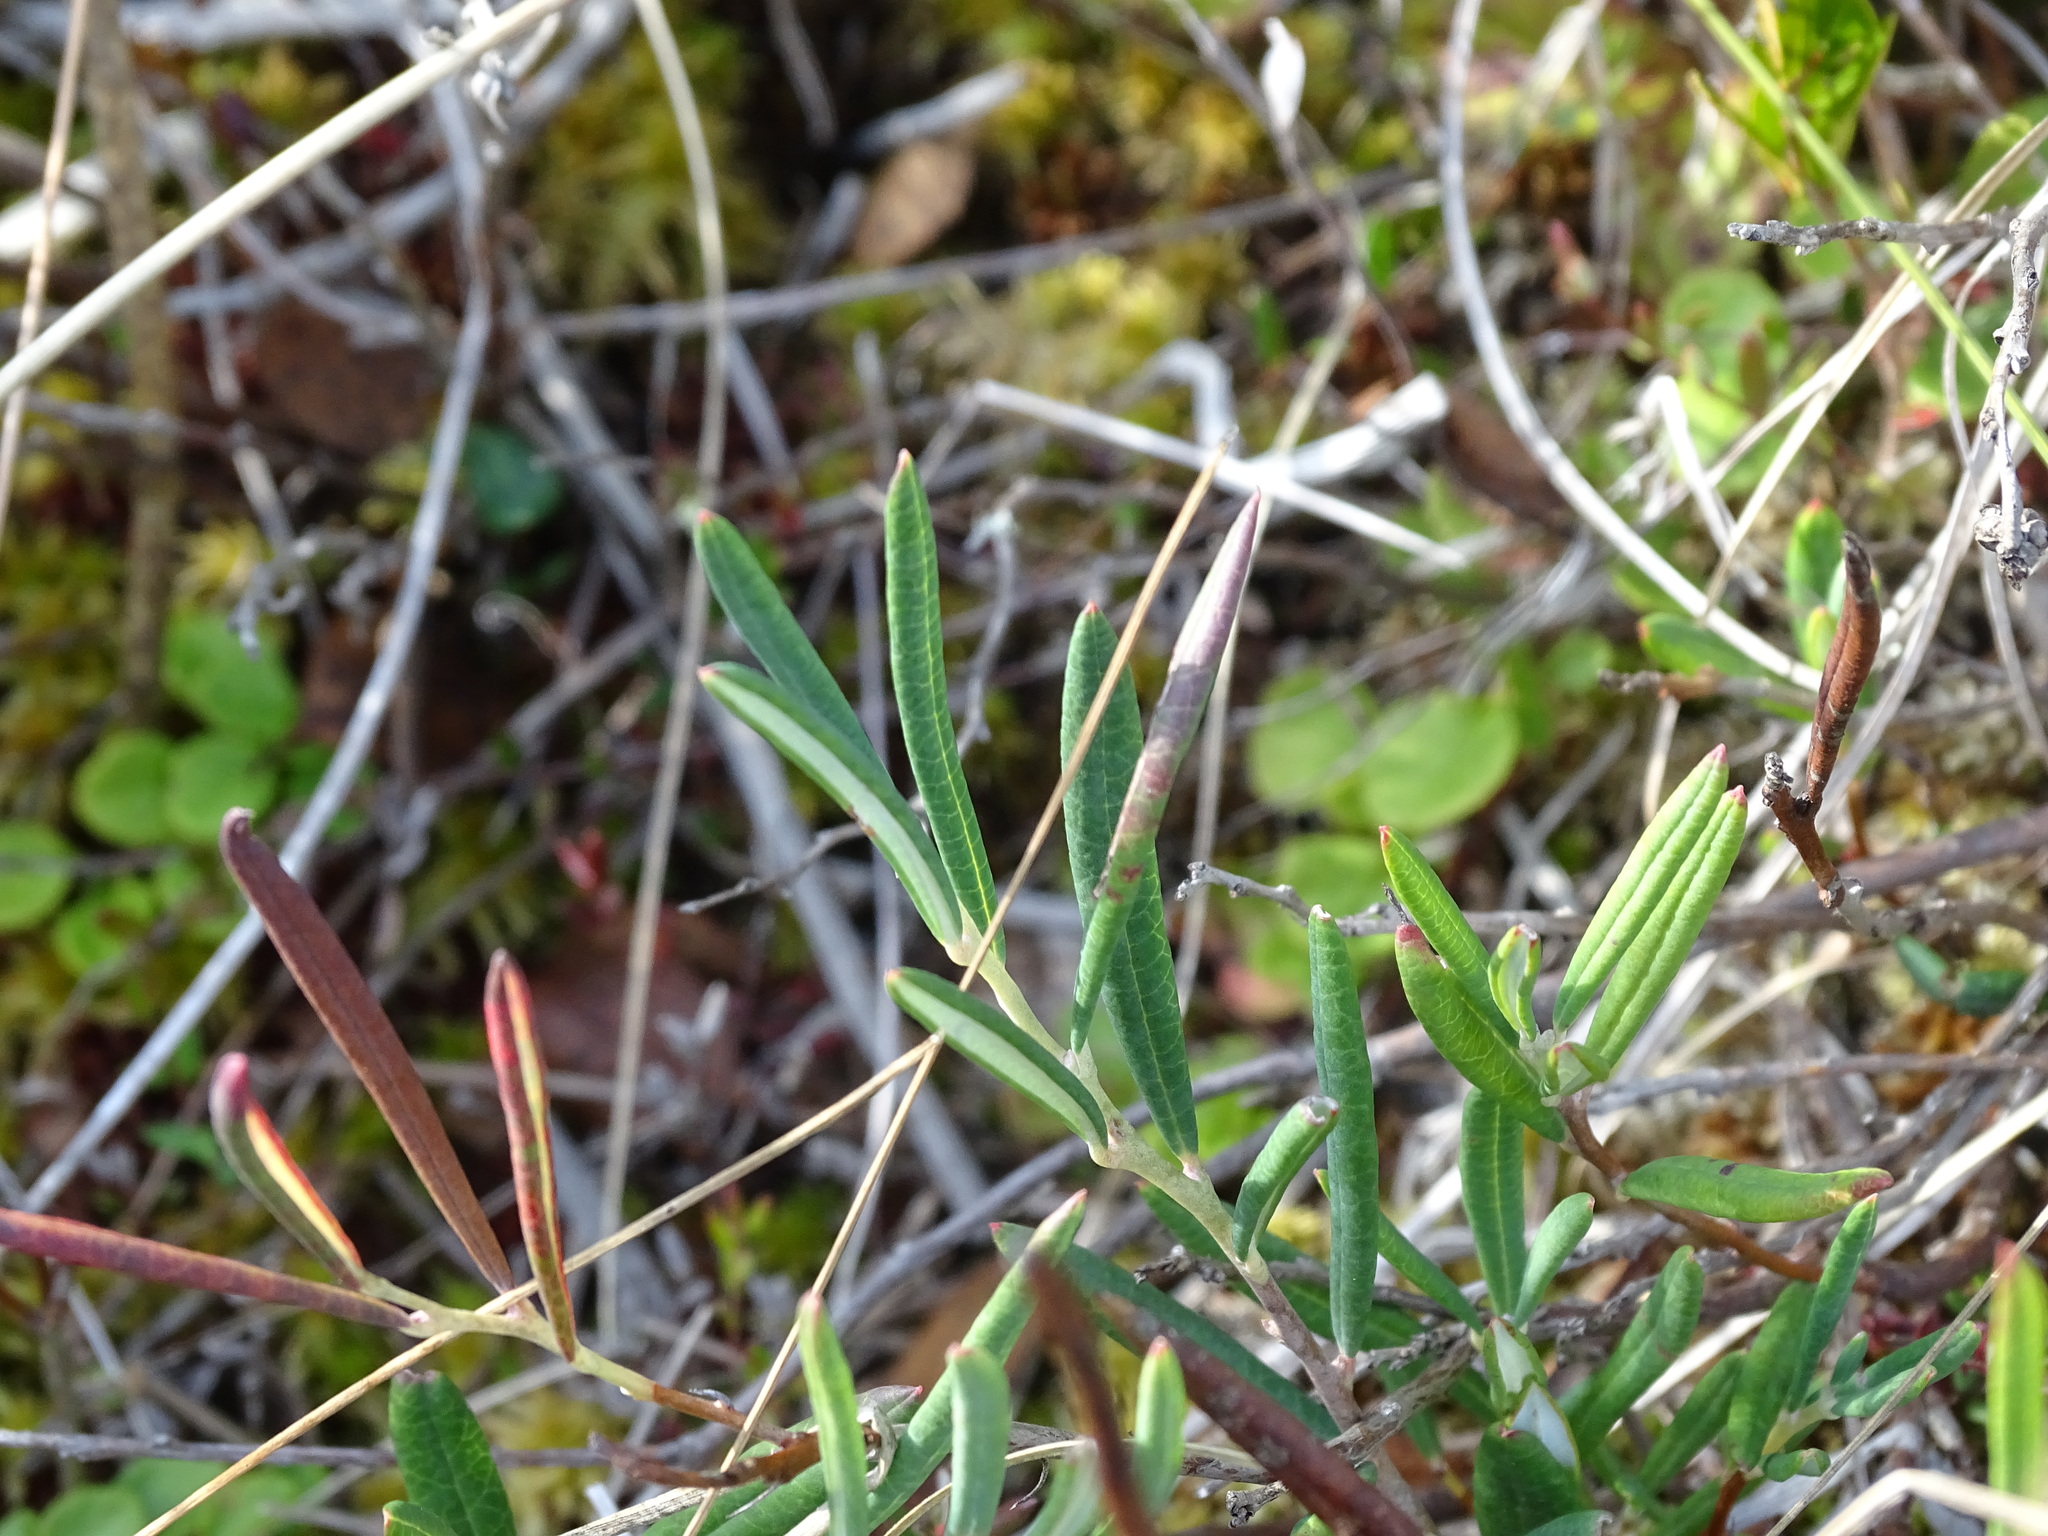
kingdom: Plantae
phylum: Tracheophyta
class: Magnoliopsida
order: Ericales
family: Ericaceae
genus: Andromeda
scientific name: Andromeda polifolia
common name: Bog-rosemary
